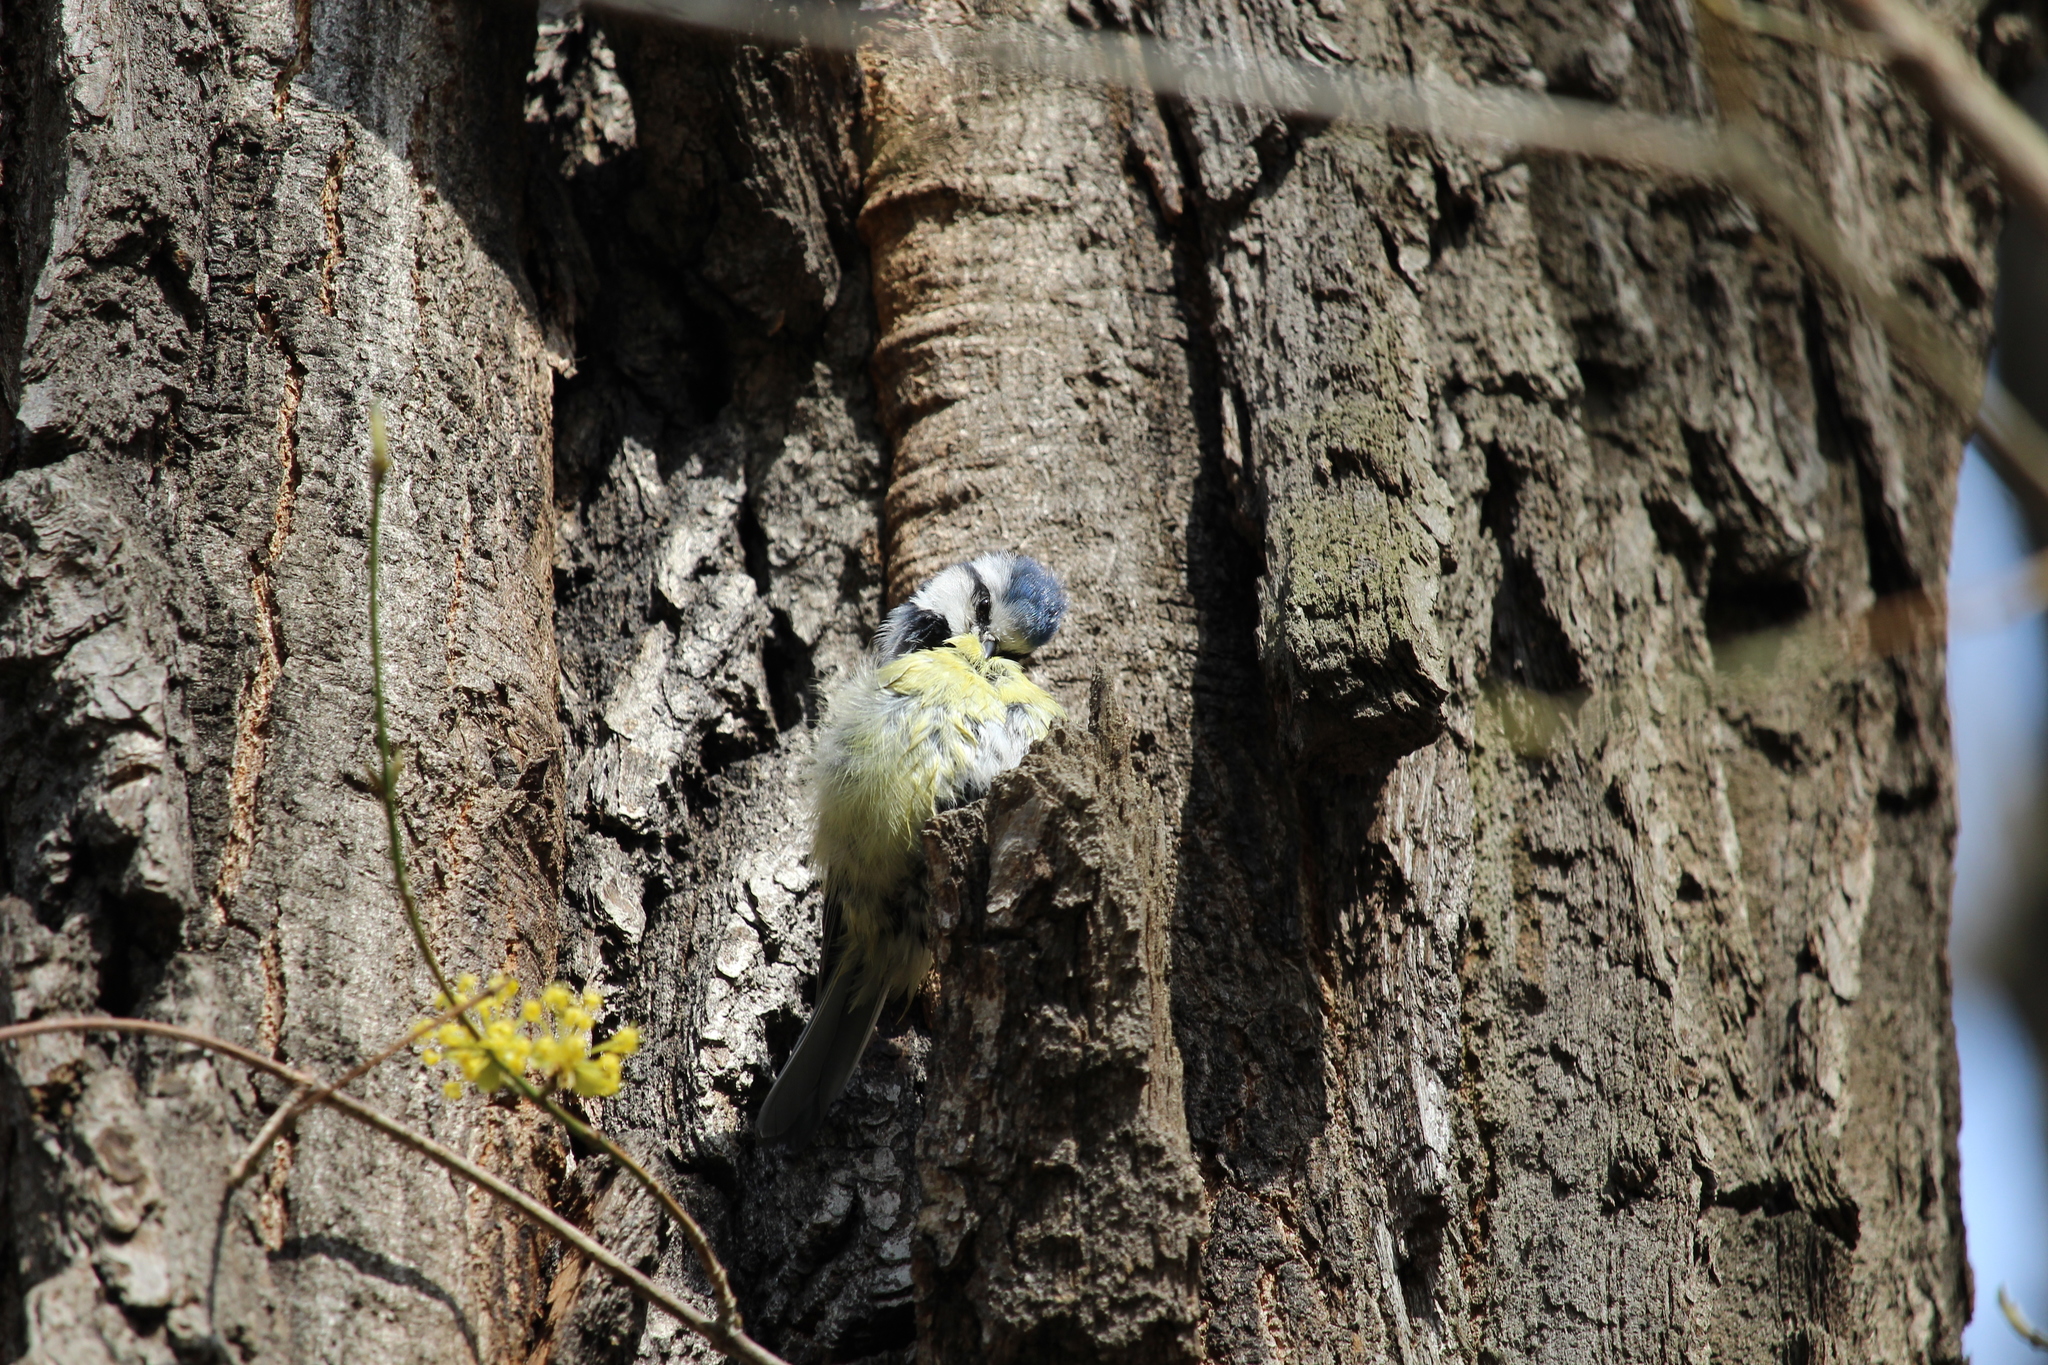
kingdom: Animalia
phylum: Chordata
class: Aves
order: Passeriformes
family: Paridae
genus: Cyanistes
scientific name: Cyanistes caeruleus
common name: Eurasian blue tit
